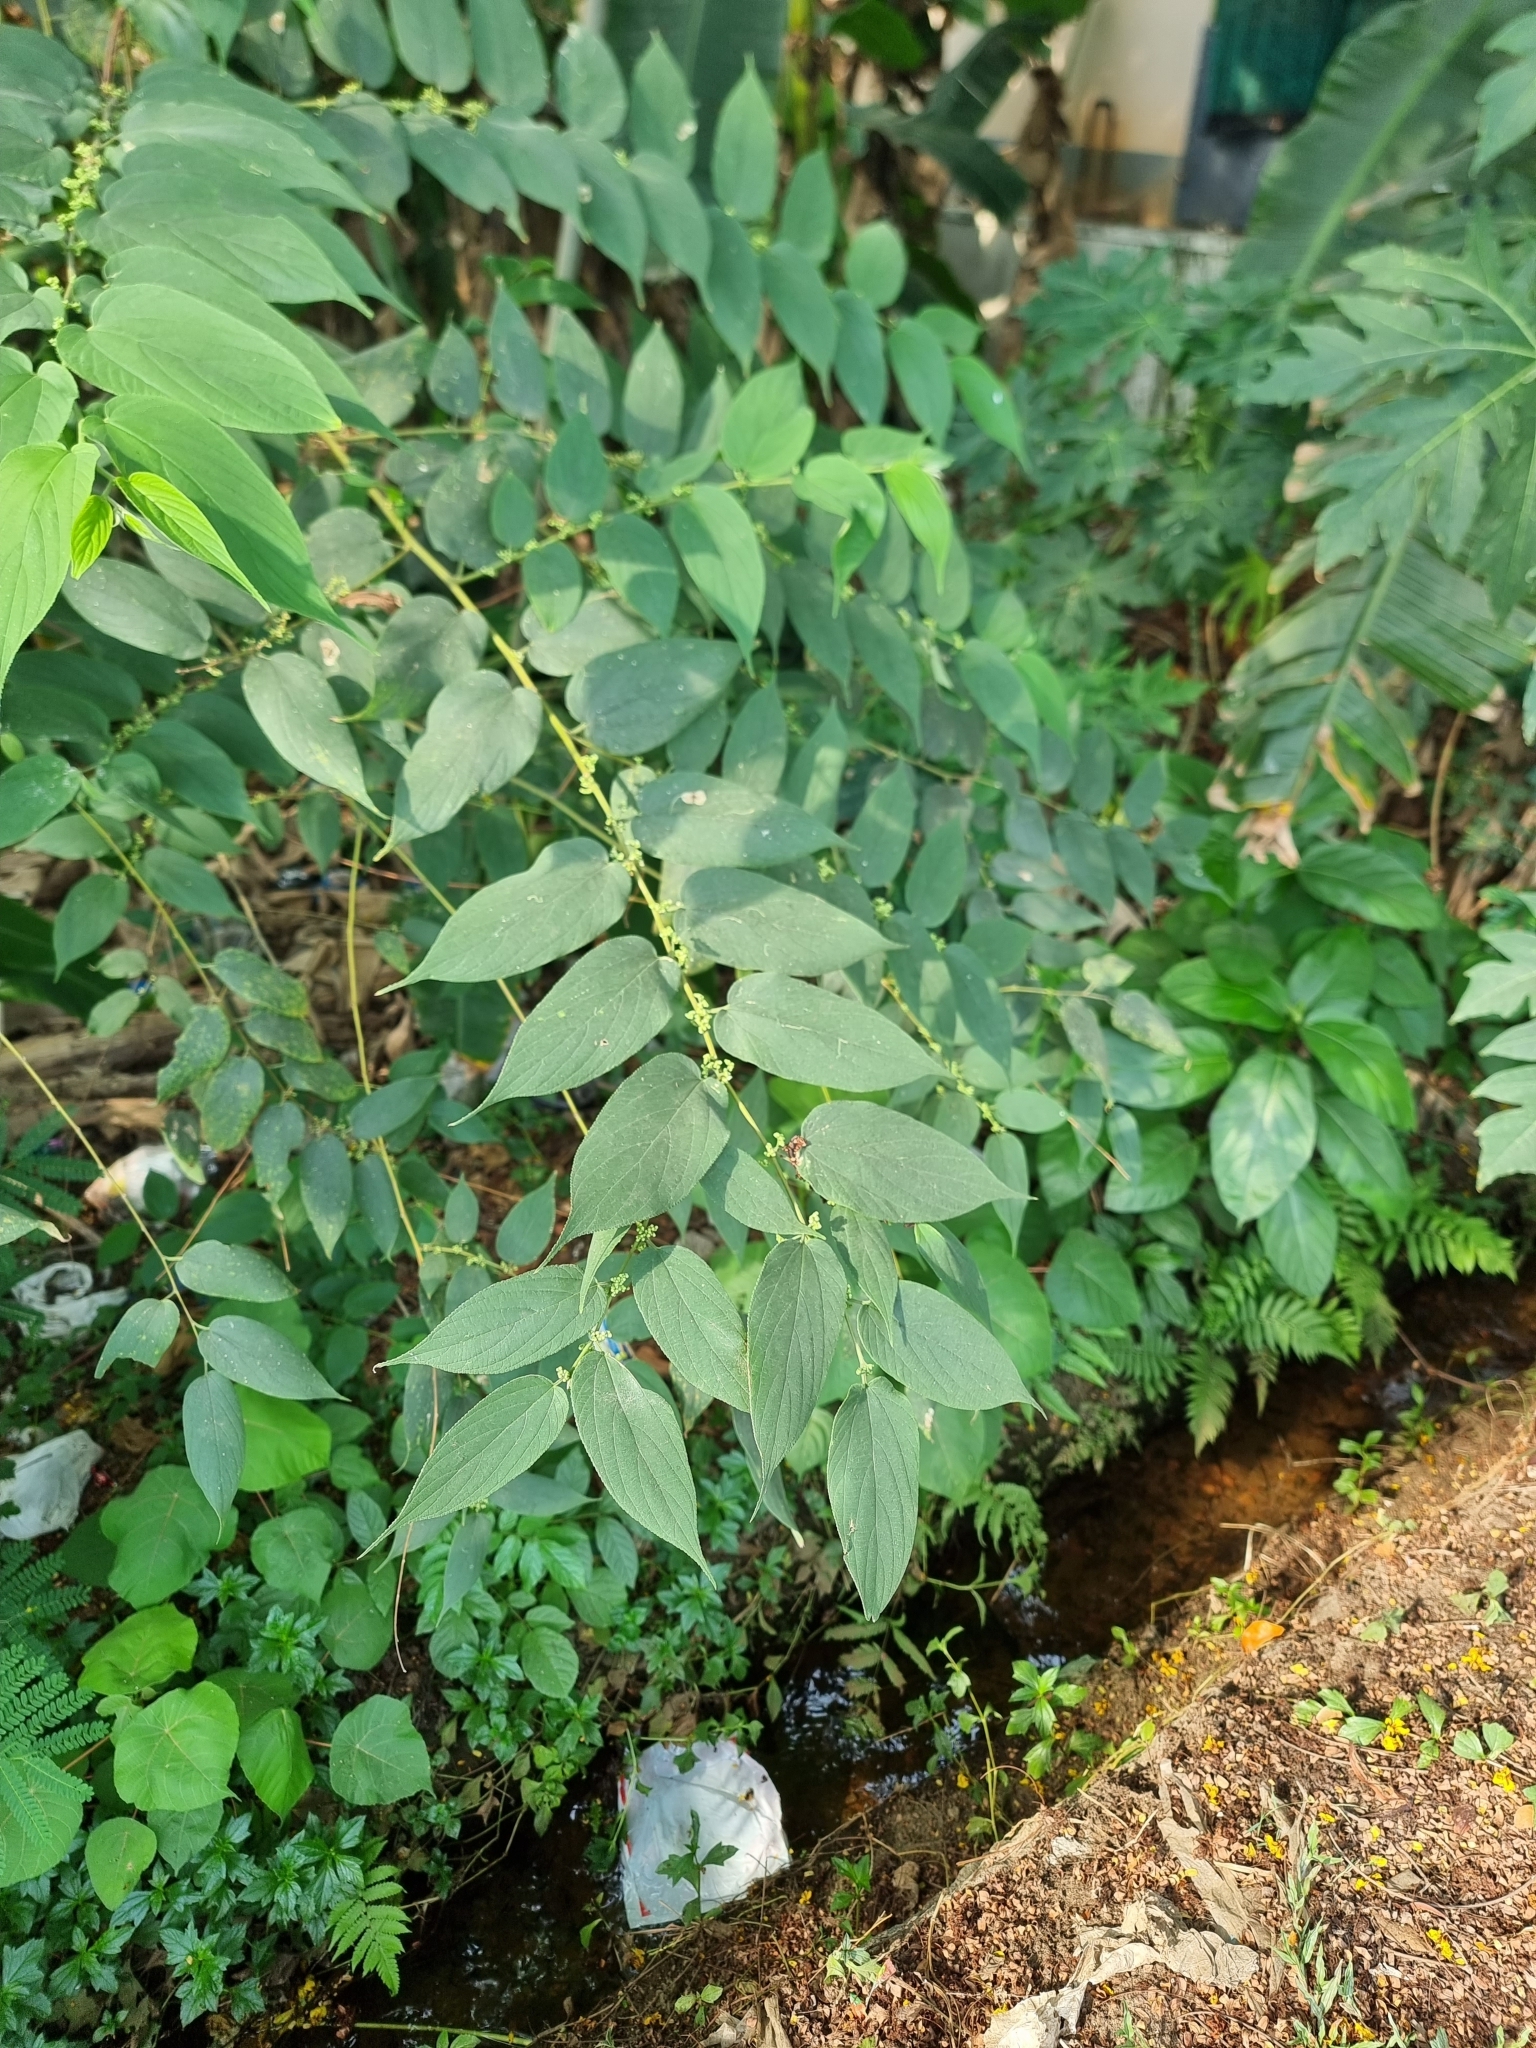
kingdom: Plantae
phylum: Tracheophyta
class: Magnoliopsida
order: Rosales
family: Cannabaceae
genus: Trema
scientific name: Trema orientale
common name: Indian charcoal tree
